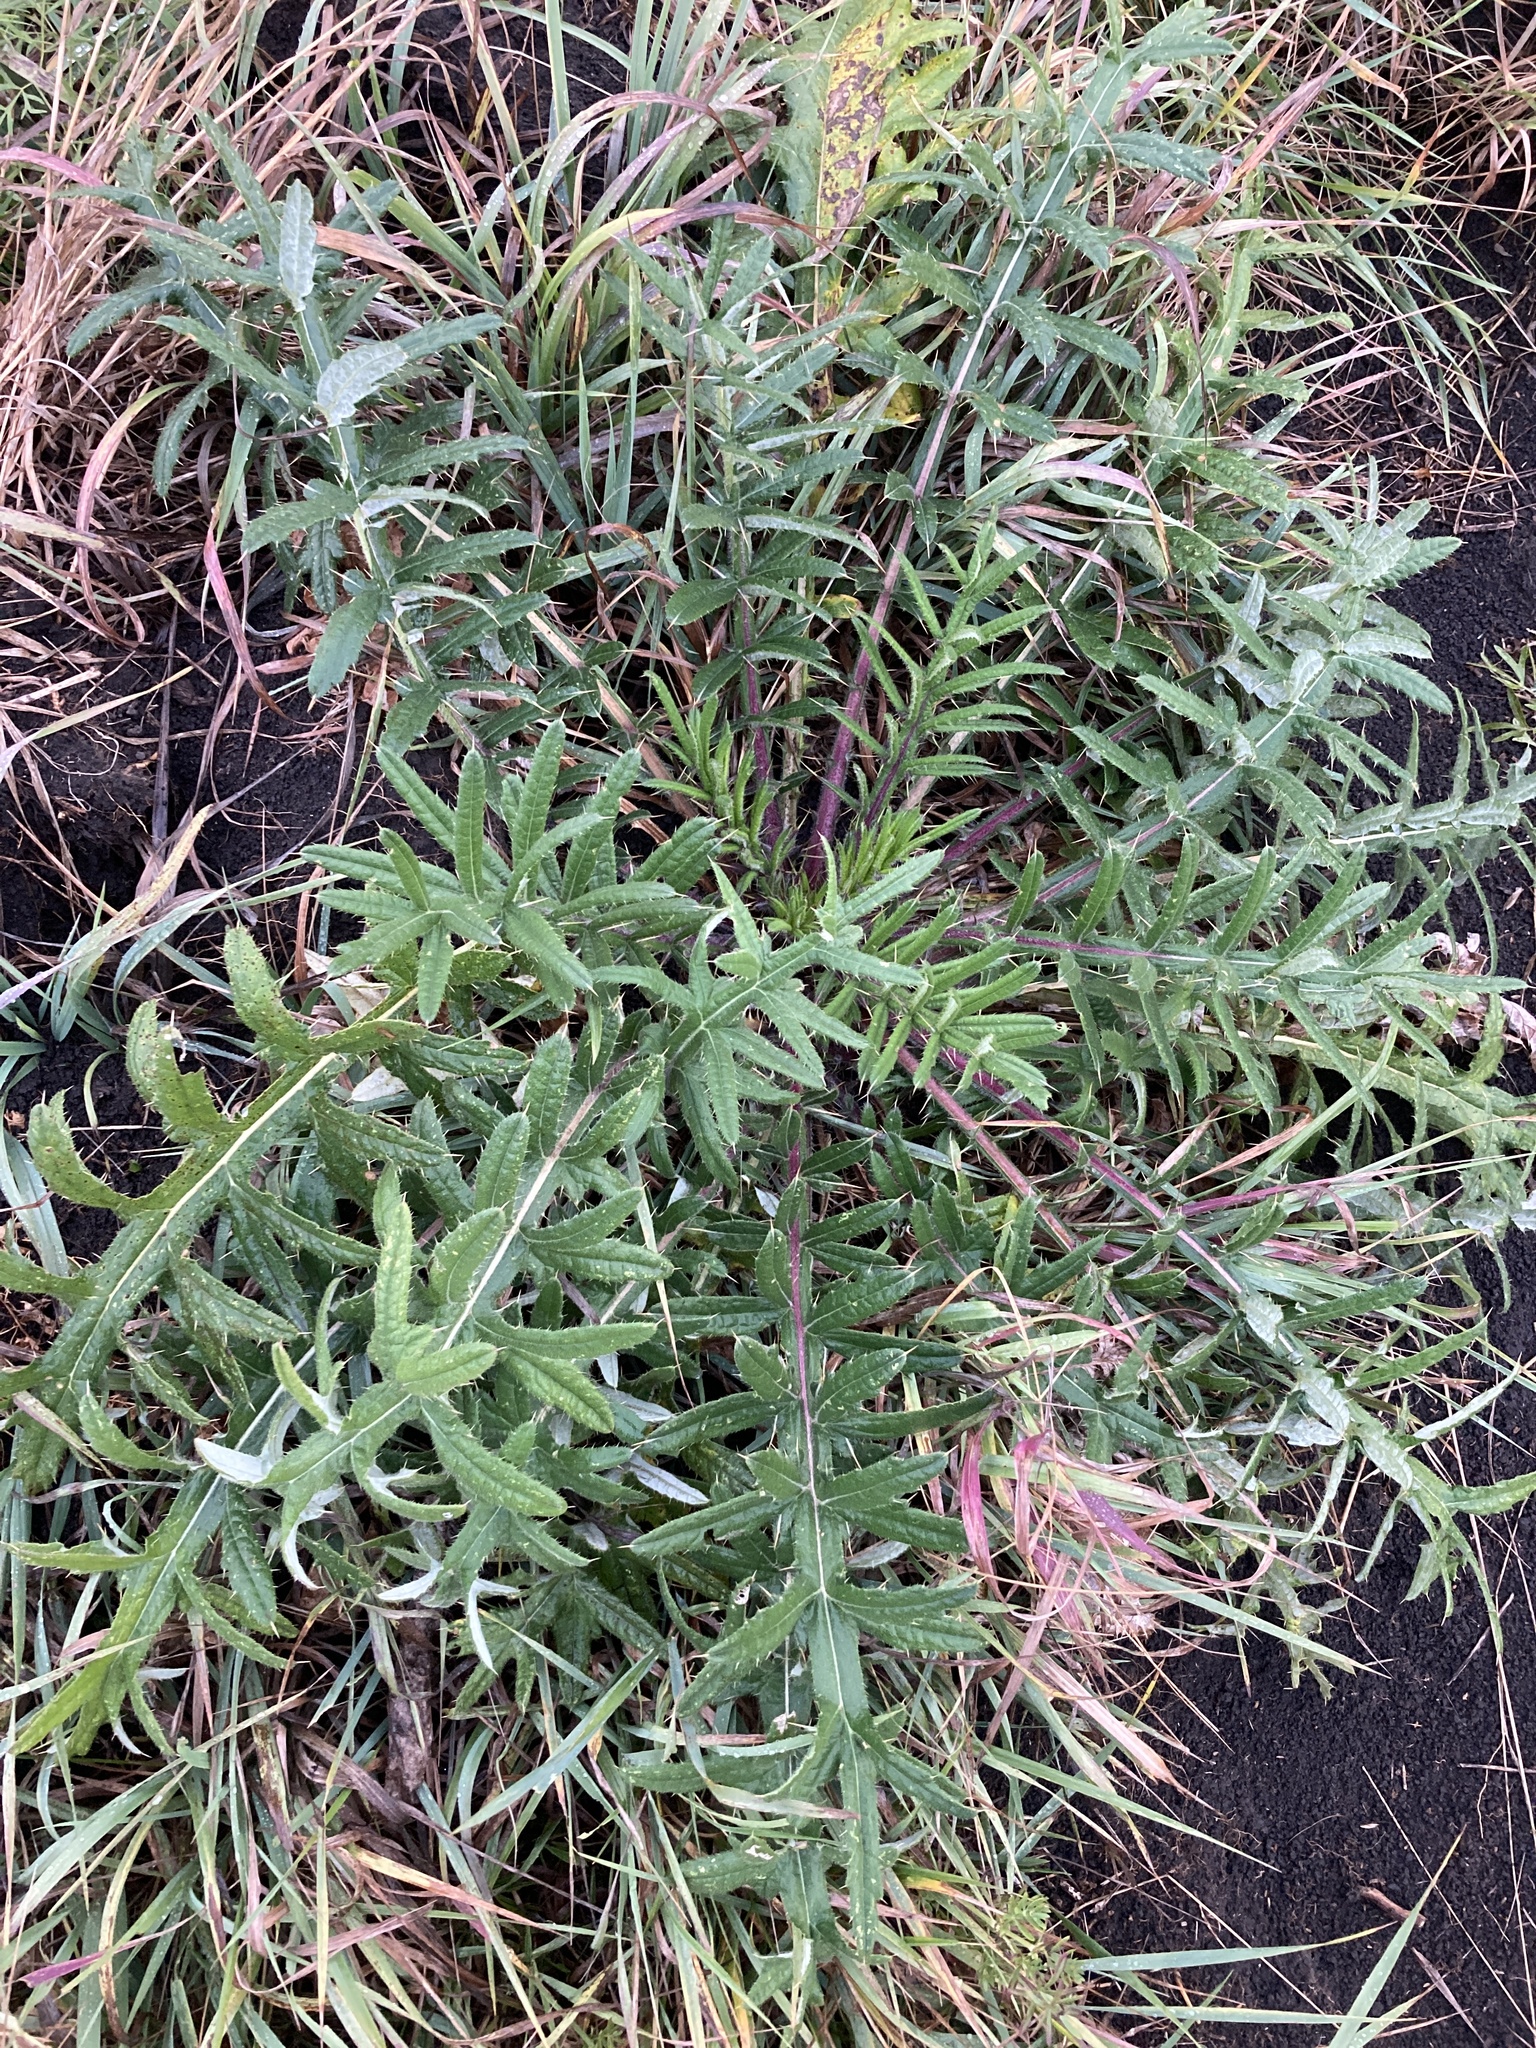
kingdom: Plantae
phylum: Tracheophyta
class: Magnoliopsida
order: Asterales
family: Asteraceae
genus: Cirsium
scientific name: Cirsium serrulatum
